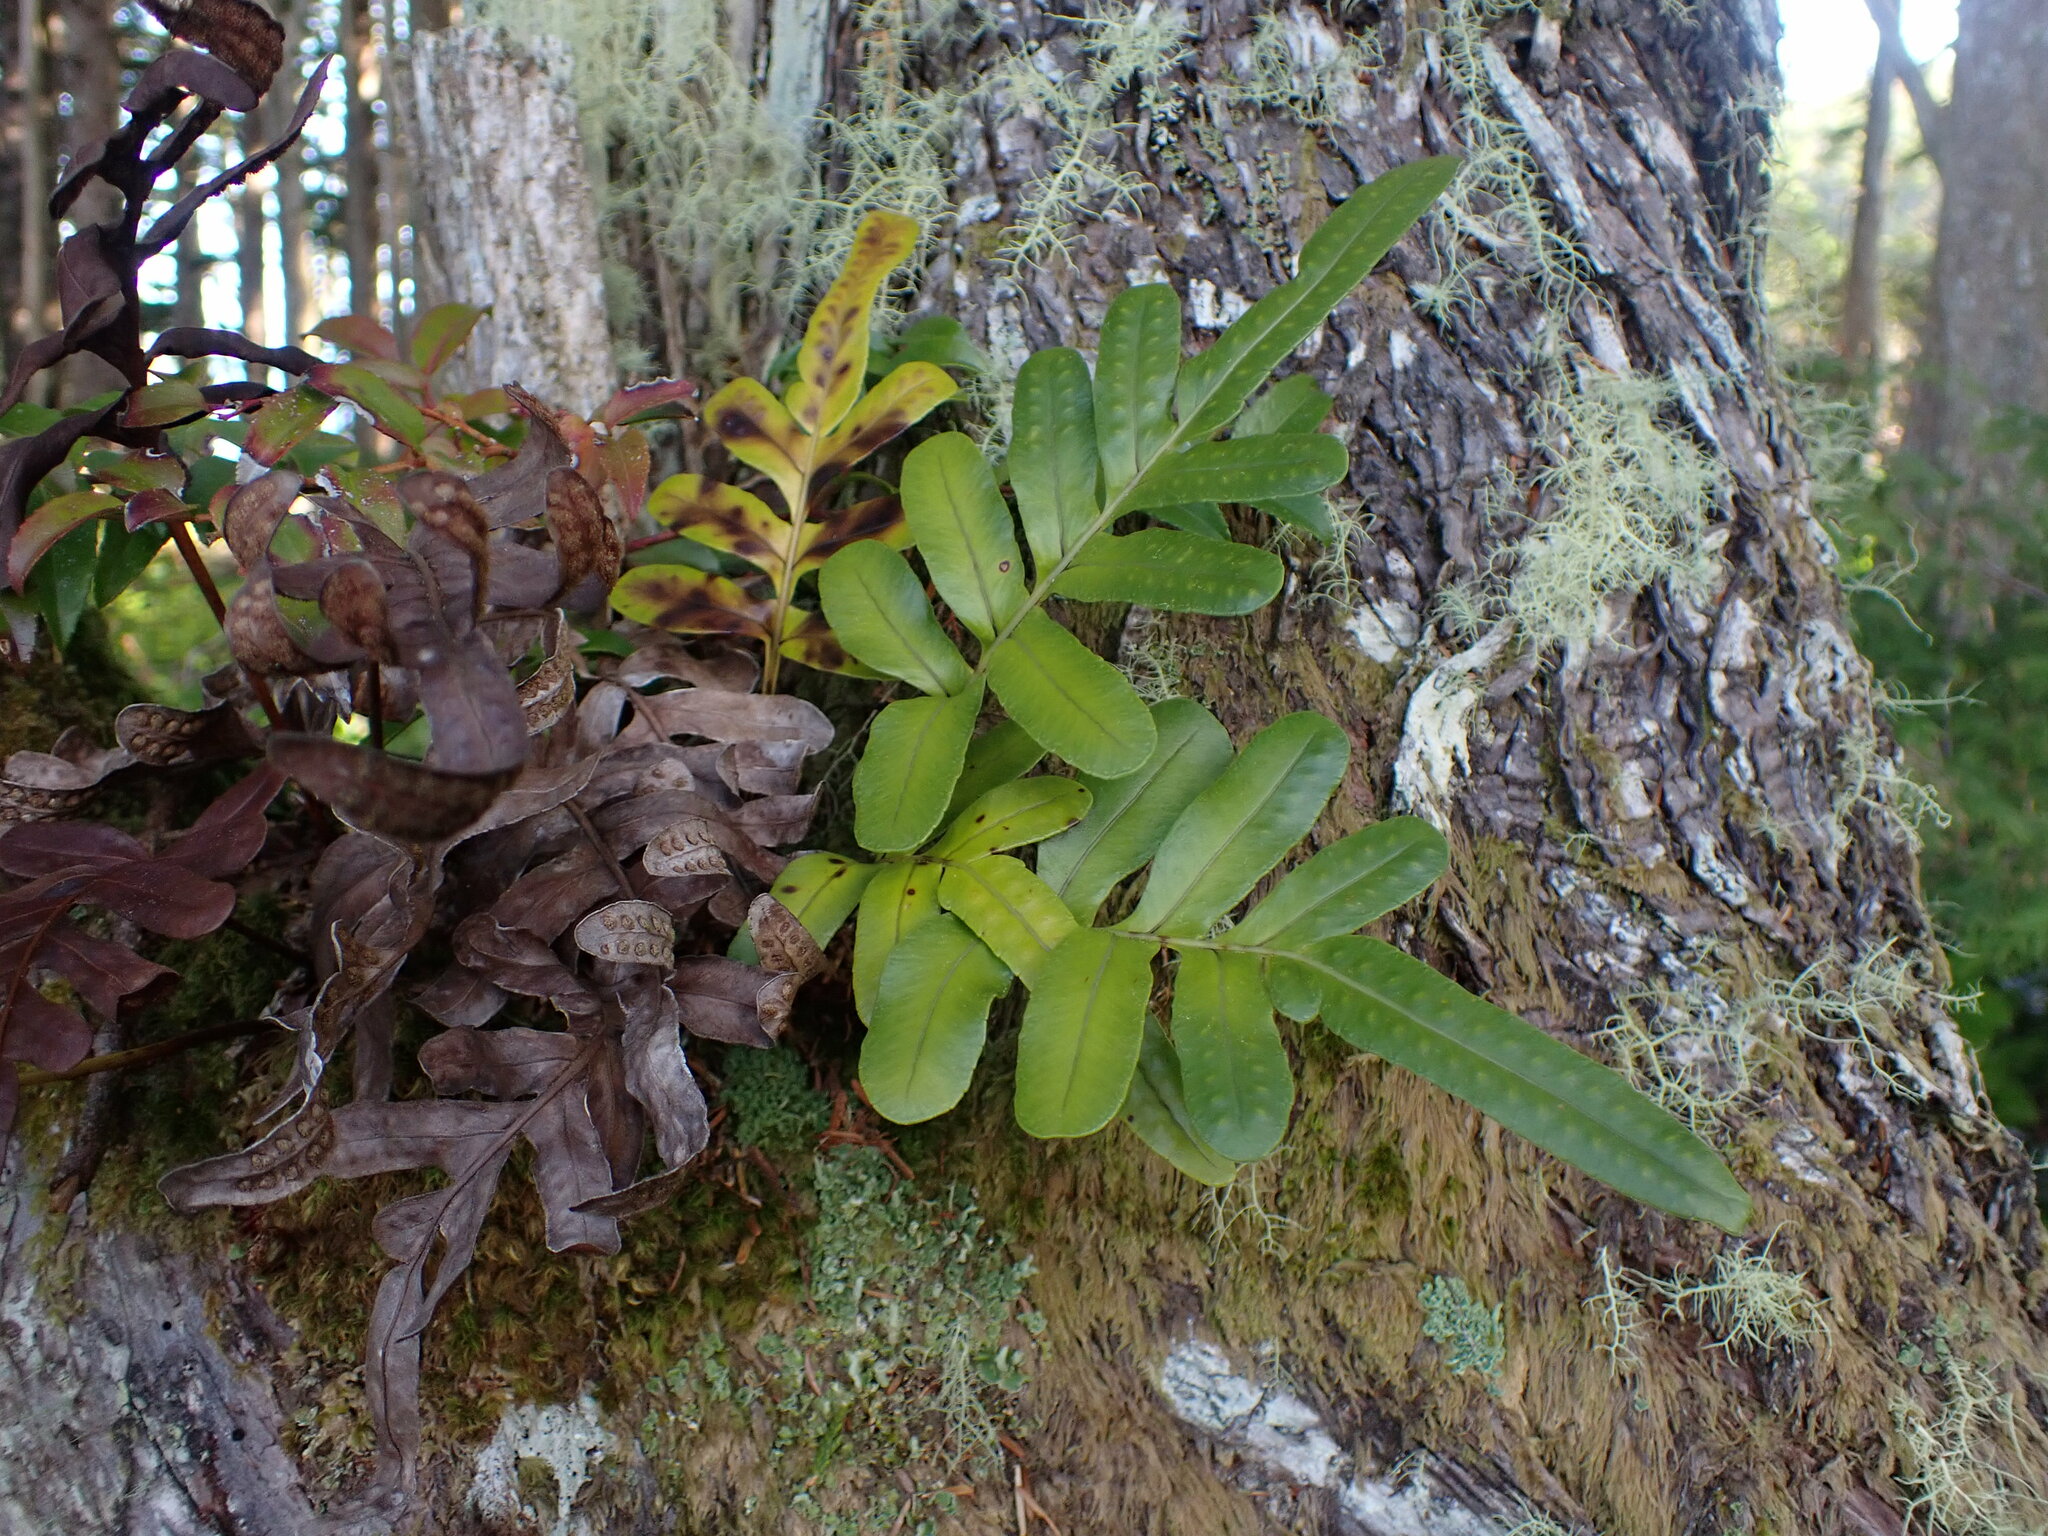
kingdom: Plantae
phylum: Tracheophyta
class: Polypodiopsida
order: Polypodiales
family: Polypodiaceae
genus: Polypodium
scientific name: Polypodium scouleri
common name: Scouler's polypody
